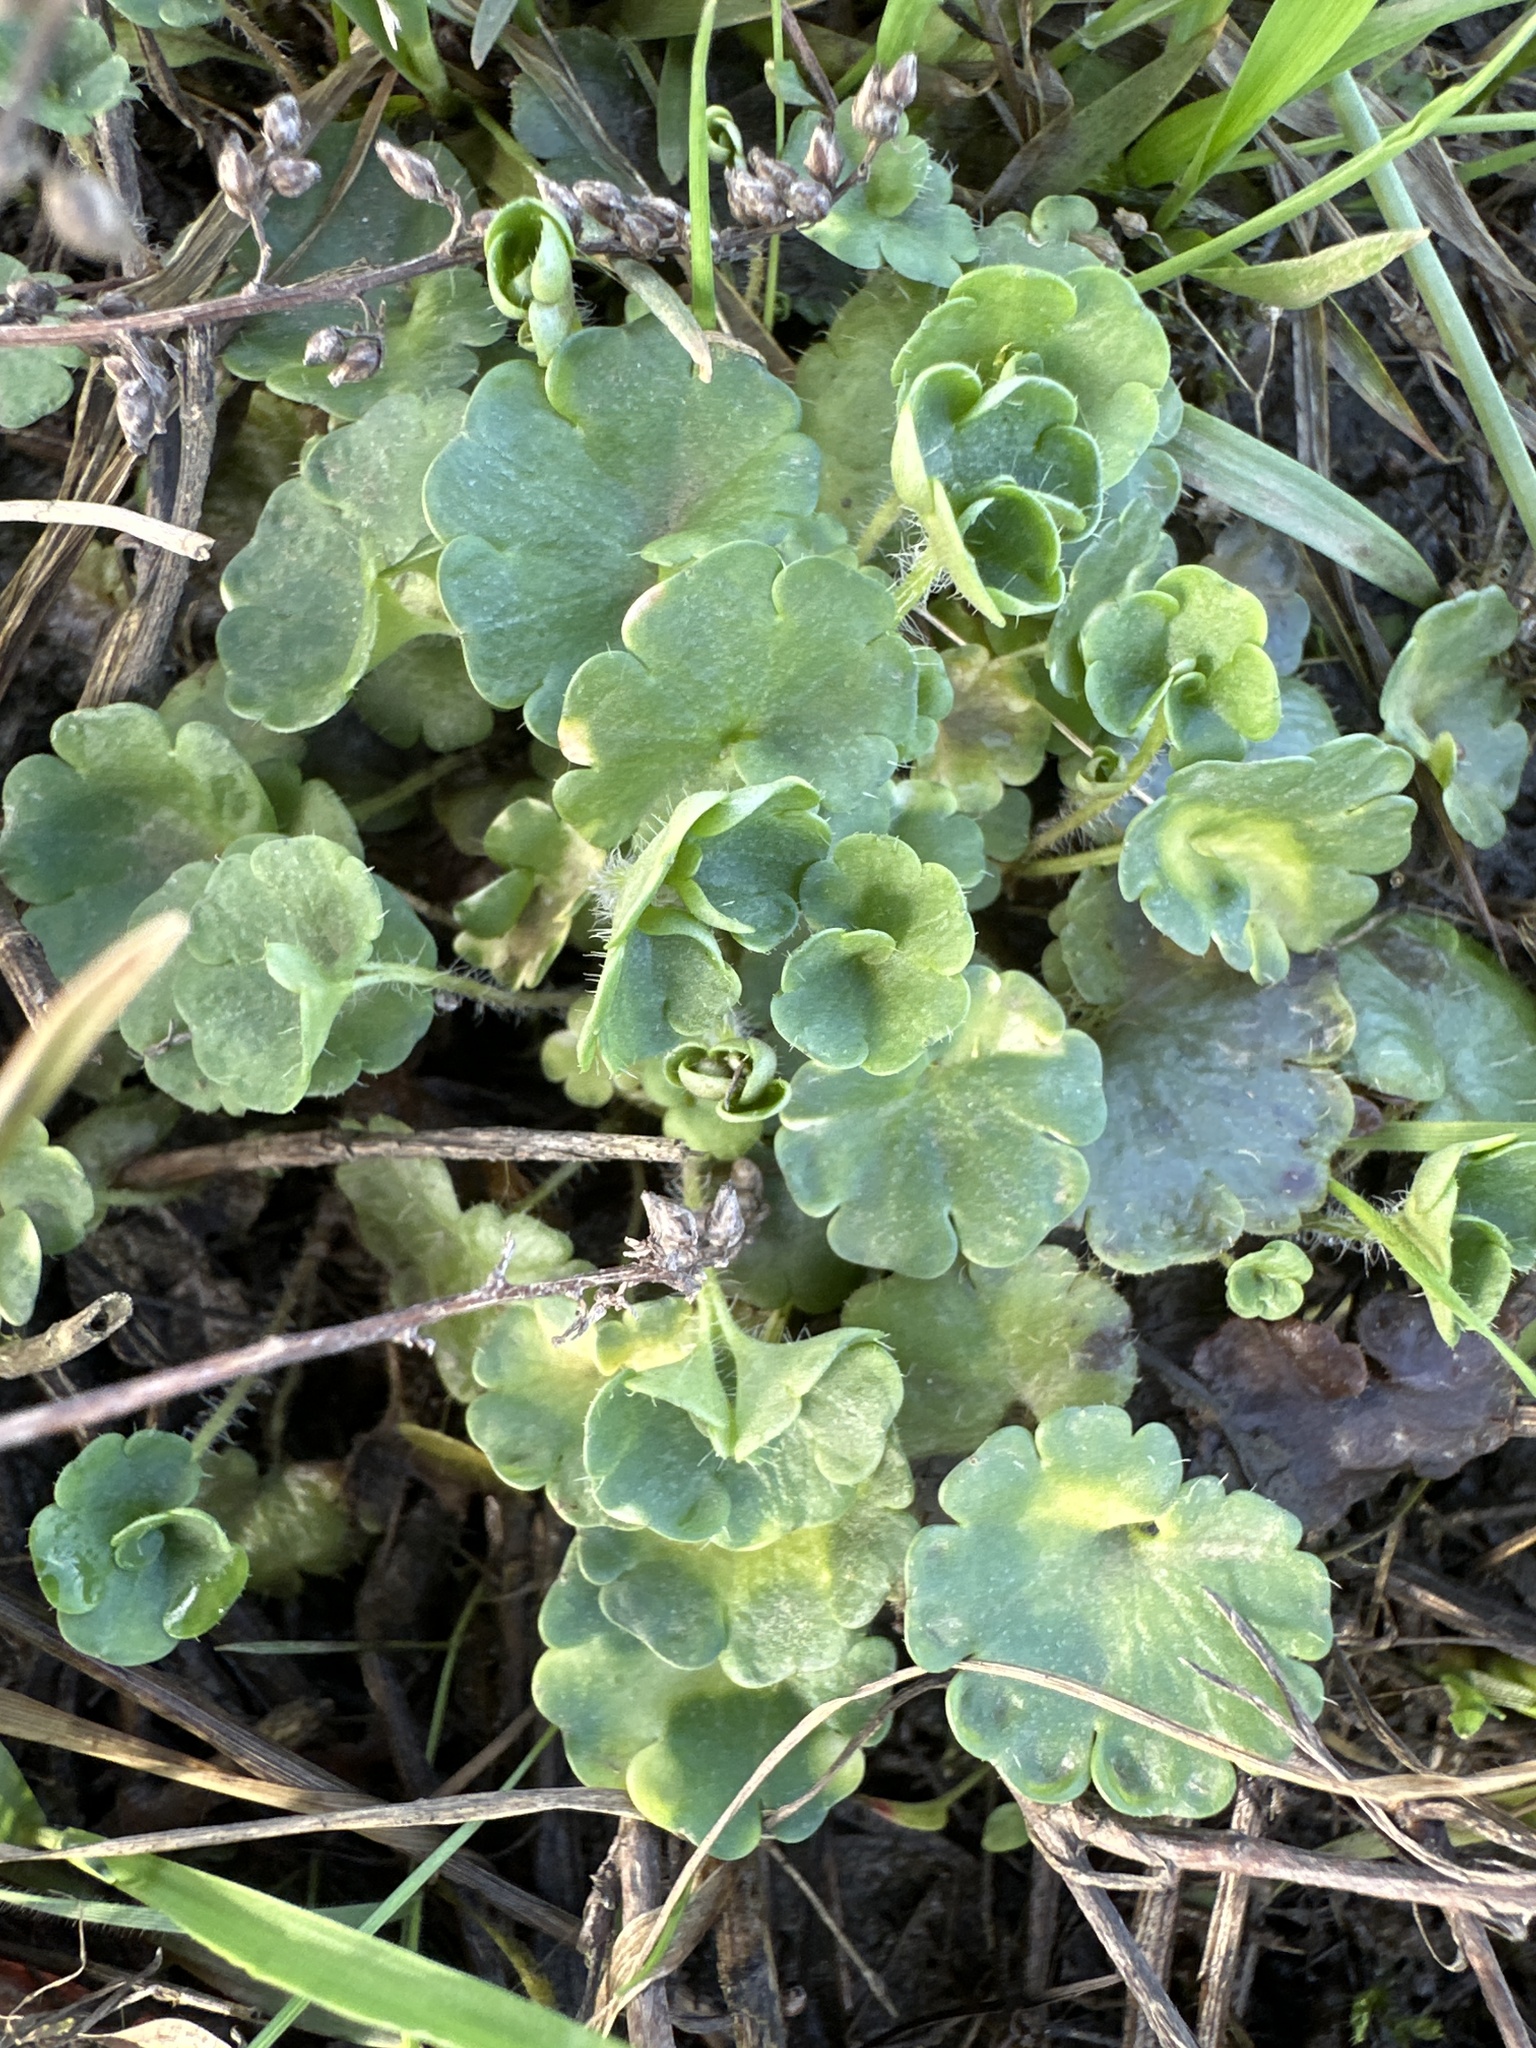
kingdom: Plantae
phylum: Tracheophyta
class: Magnoliopsida
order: Saxifragales
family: Saxifragaceae
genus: Saxifraga
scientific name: Saxifraga granulata
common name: Meadow saxifrage
